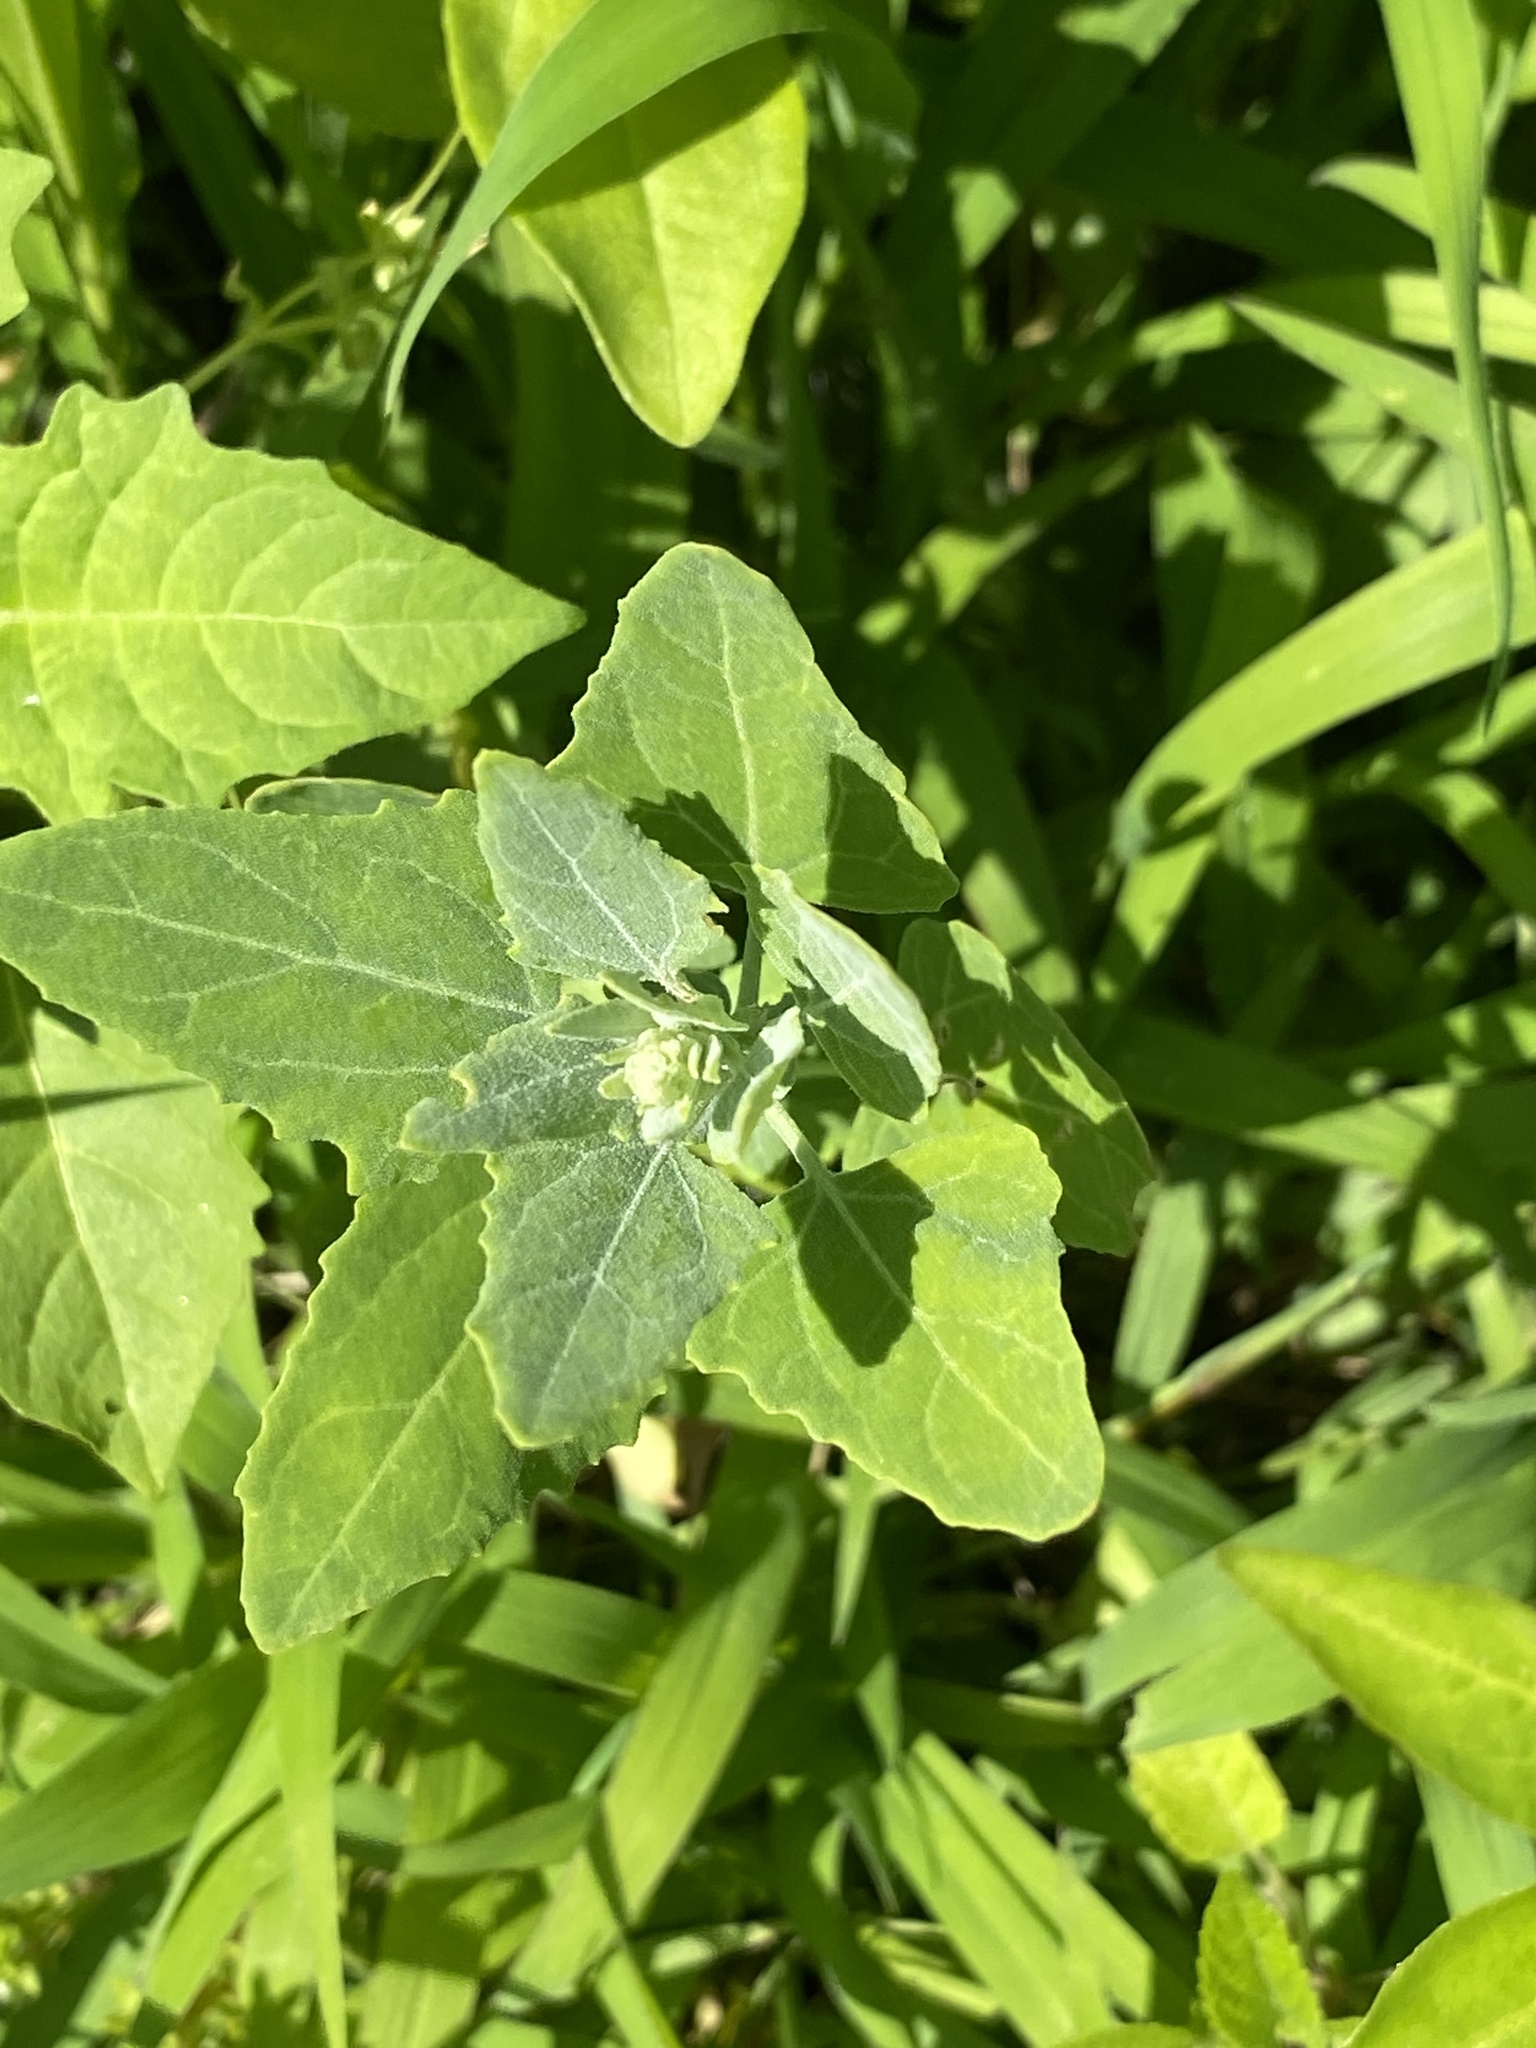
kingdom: Plantae
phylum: Tracheophyta
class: Magnoliopsida
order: Caryophyllales
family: Amaranthaceae
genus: Chenopodium
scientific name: Chenopodium album
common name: Fat-hen
